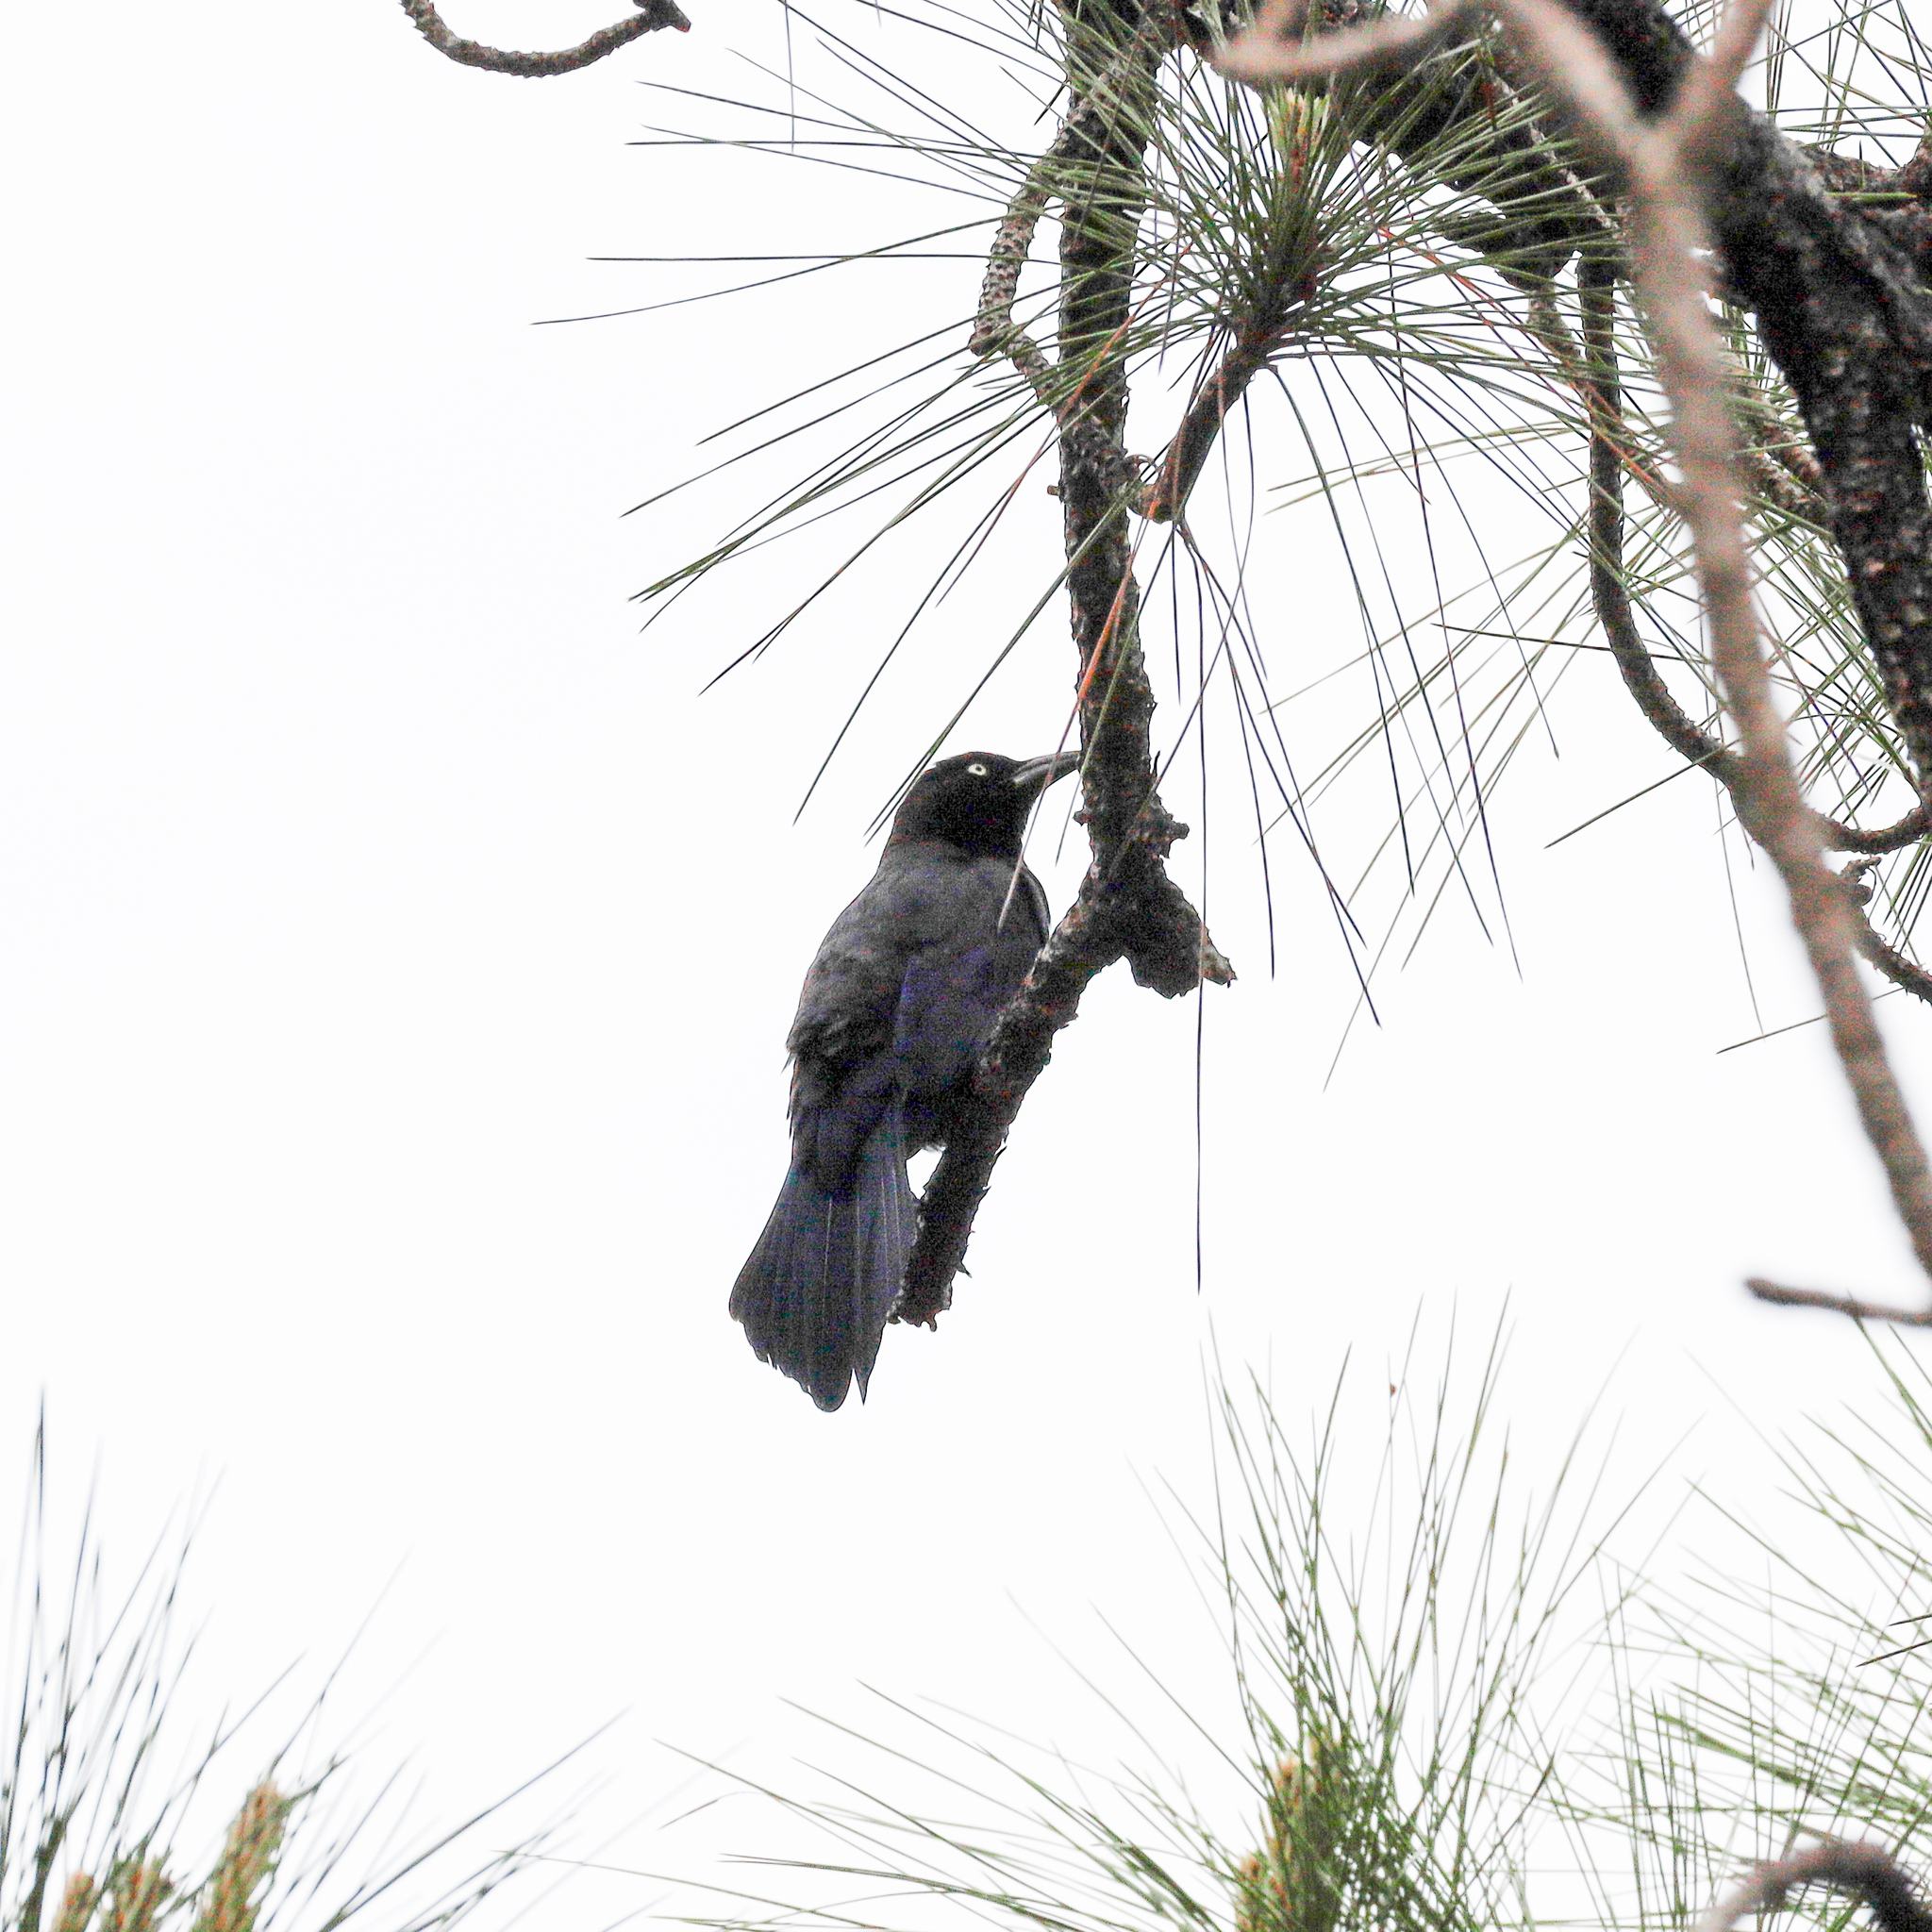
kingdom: Animalia
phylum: Chordata
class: Aves
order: Passeriformes
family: Icteridae
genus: Quiscalus
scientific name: Quiscalus quiscula
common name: Common grackle
